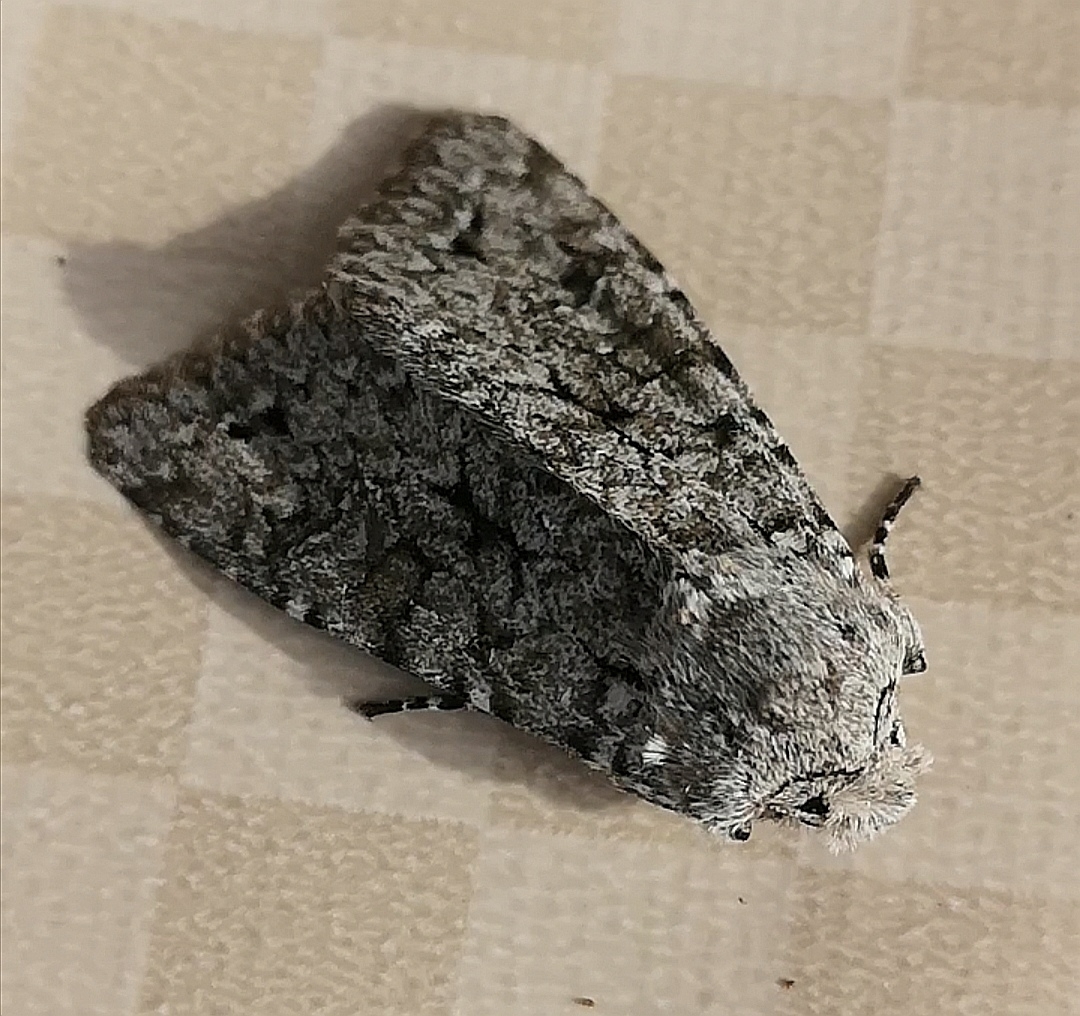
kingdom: Animalia
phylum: Arthropoda
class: Insecta
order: Lepidoptera
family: Noctuidae
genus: Antitype
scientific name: Antitype chi
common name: Grey chi
